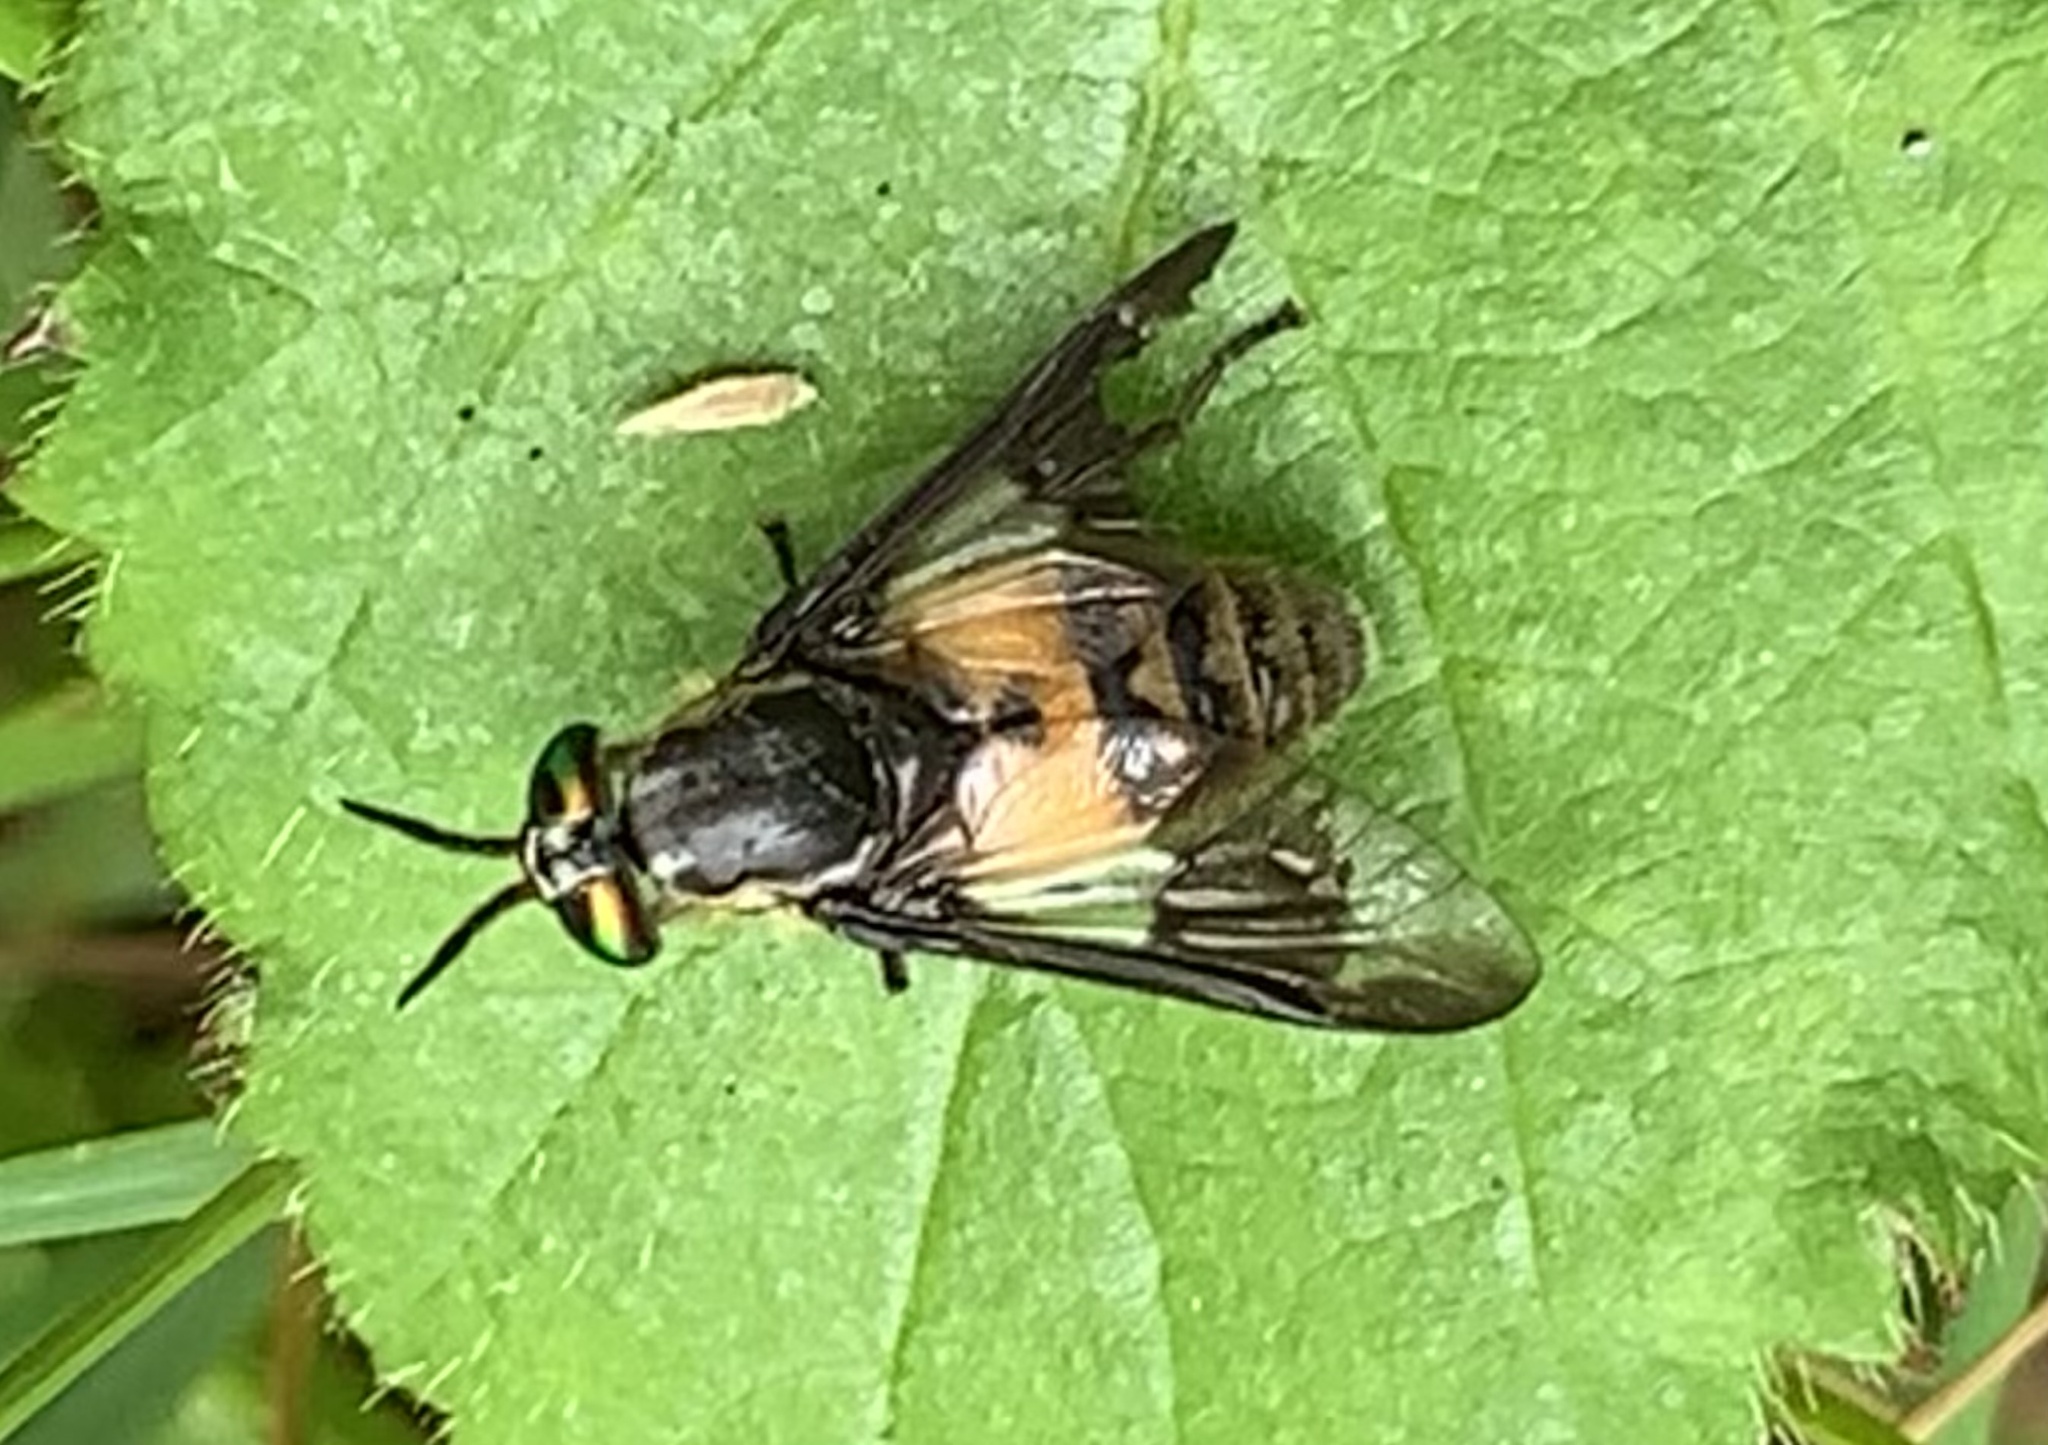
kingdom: Animalia
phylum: Arthropoda
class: Insecta
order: Diptera
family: Tabanidae
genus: Chrysops
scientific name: Chrysops viduatus
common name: Square-spot deerfly
